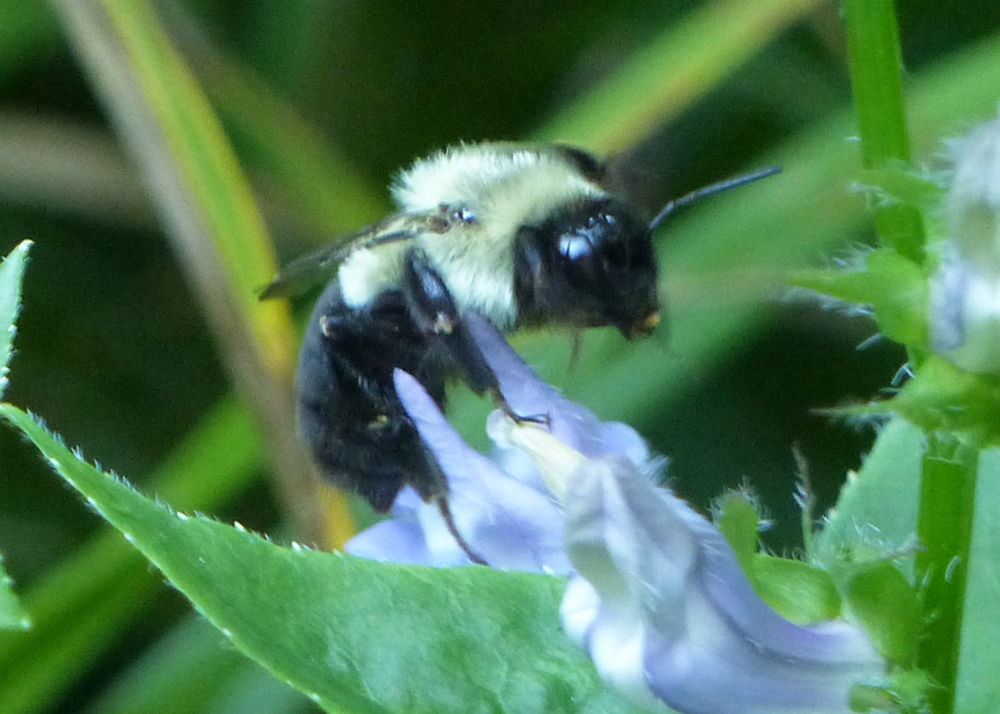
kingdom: Animalia
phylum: Arthropoda
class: Insecta
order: Hymenoptera
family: Apidae
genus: Bombus
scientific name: Bombus impatiens
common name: Common eastern bumble bee
